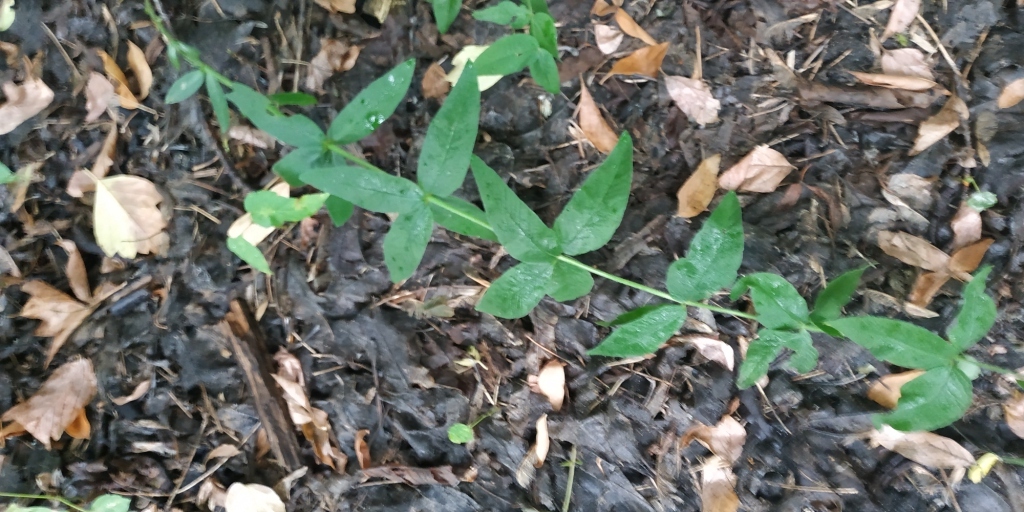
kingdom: Plantae
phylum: Tracheophyta
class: Magnoliopsida
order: Ericales
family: Primulaceae
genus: Lysimachia
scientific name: Lysimachia vulgaris
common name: Yellow loosestrife
